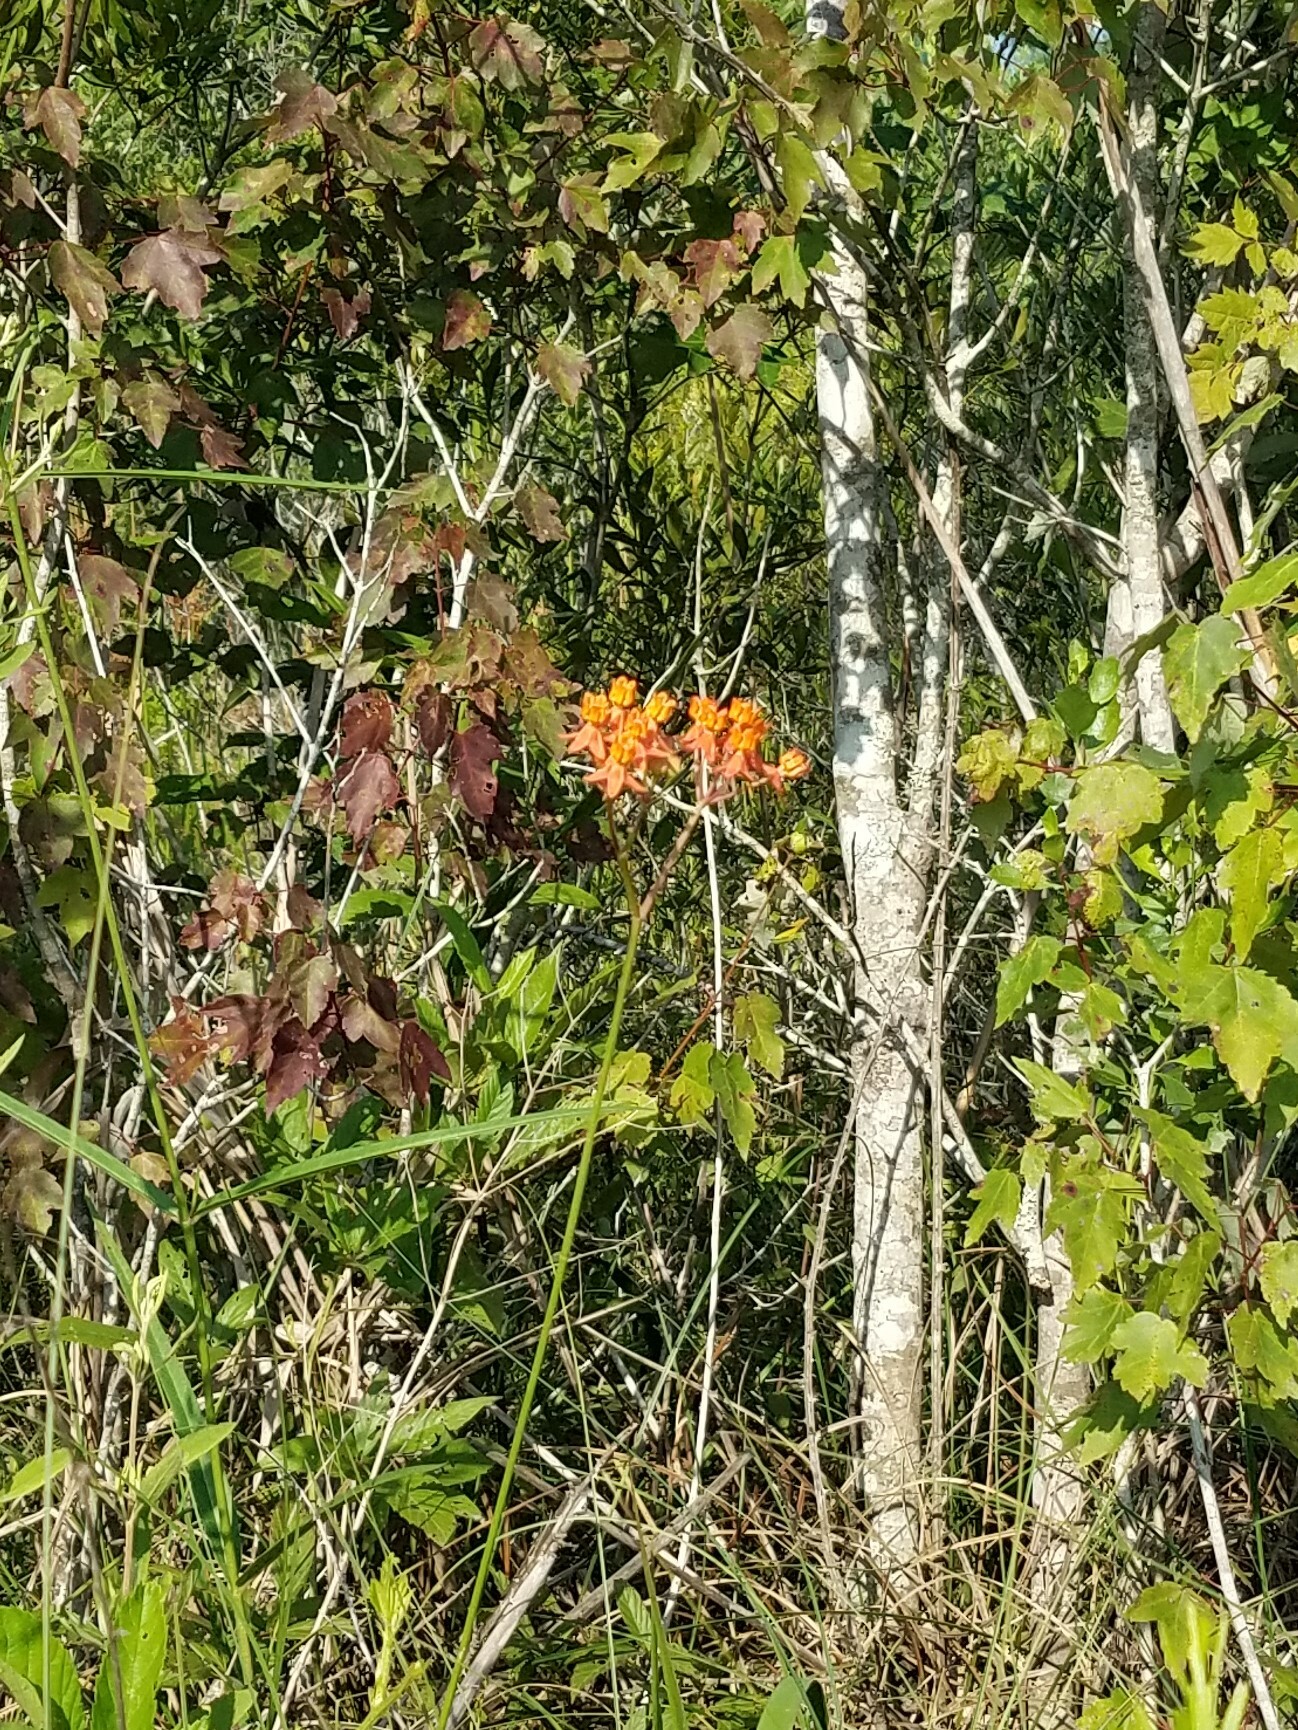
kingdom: Plantae
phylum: Tracheophyta
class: Magnoliopsida
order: Gentianales
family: Apocynaceae
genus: Asclepias
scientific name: Asclepias lanceolata
